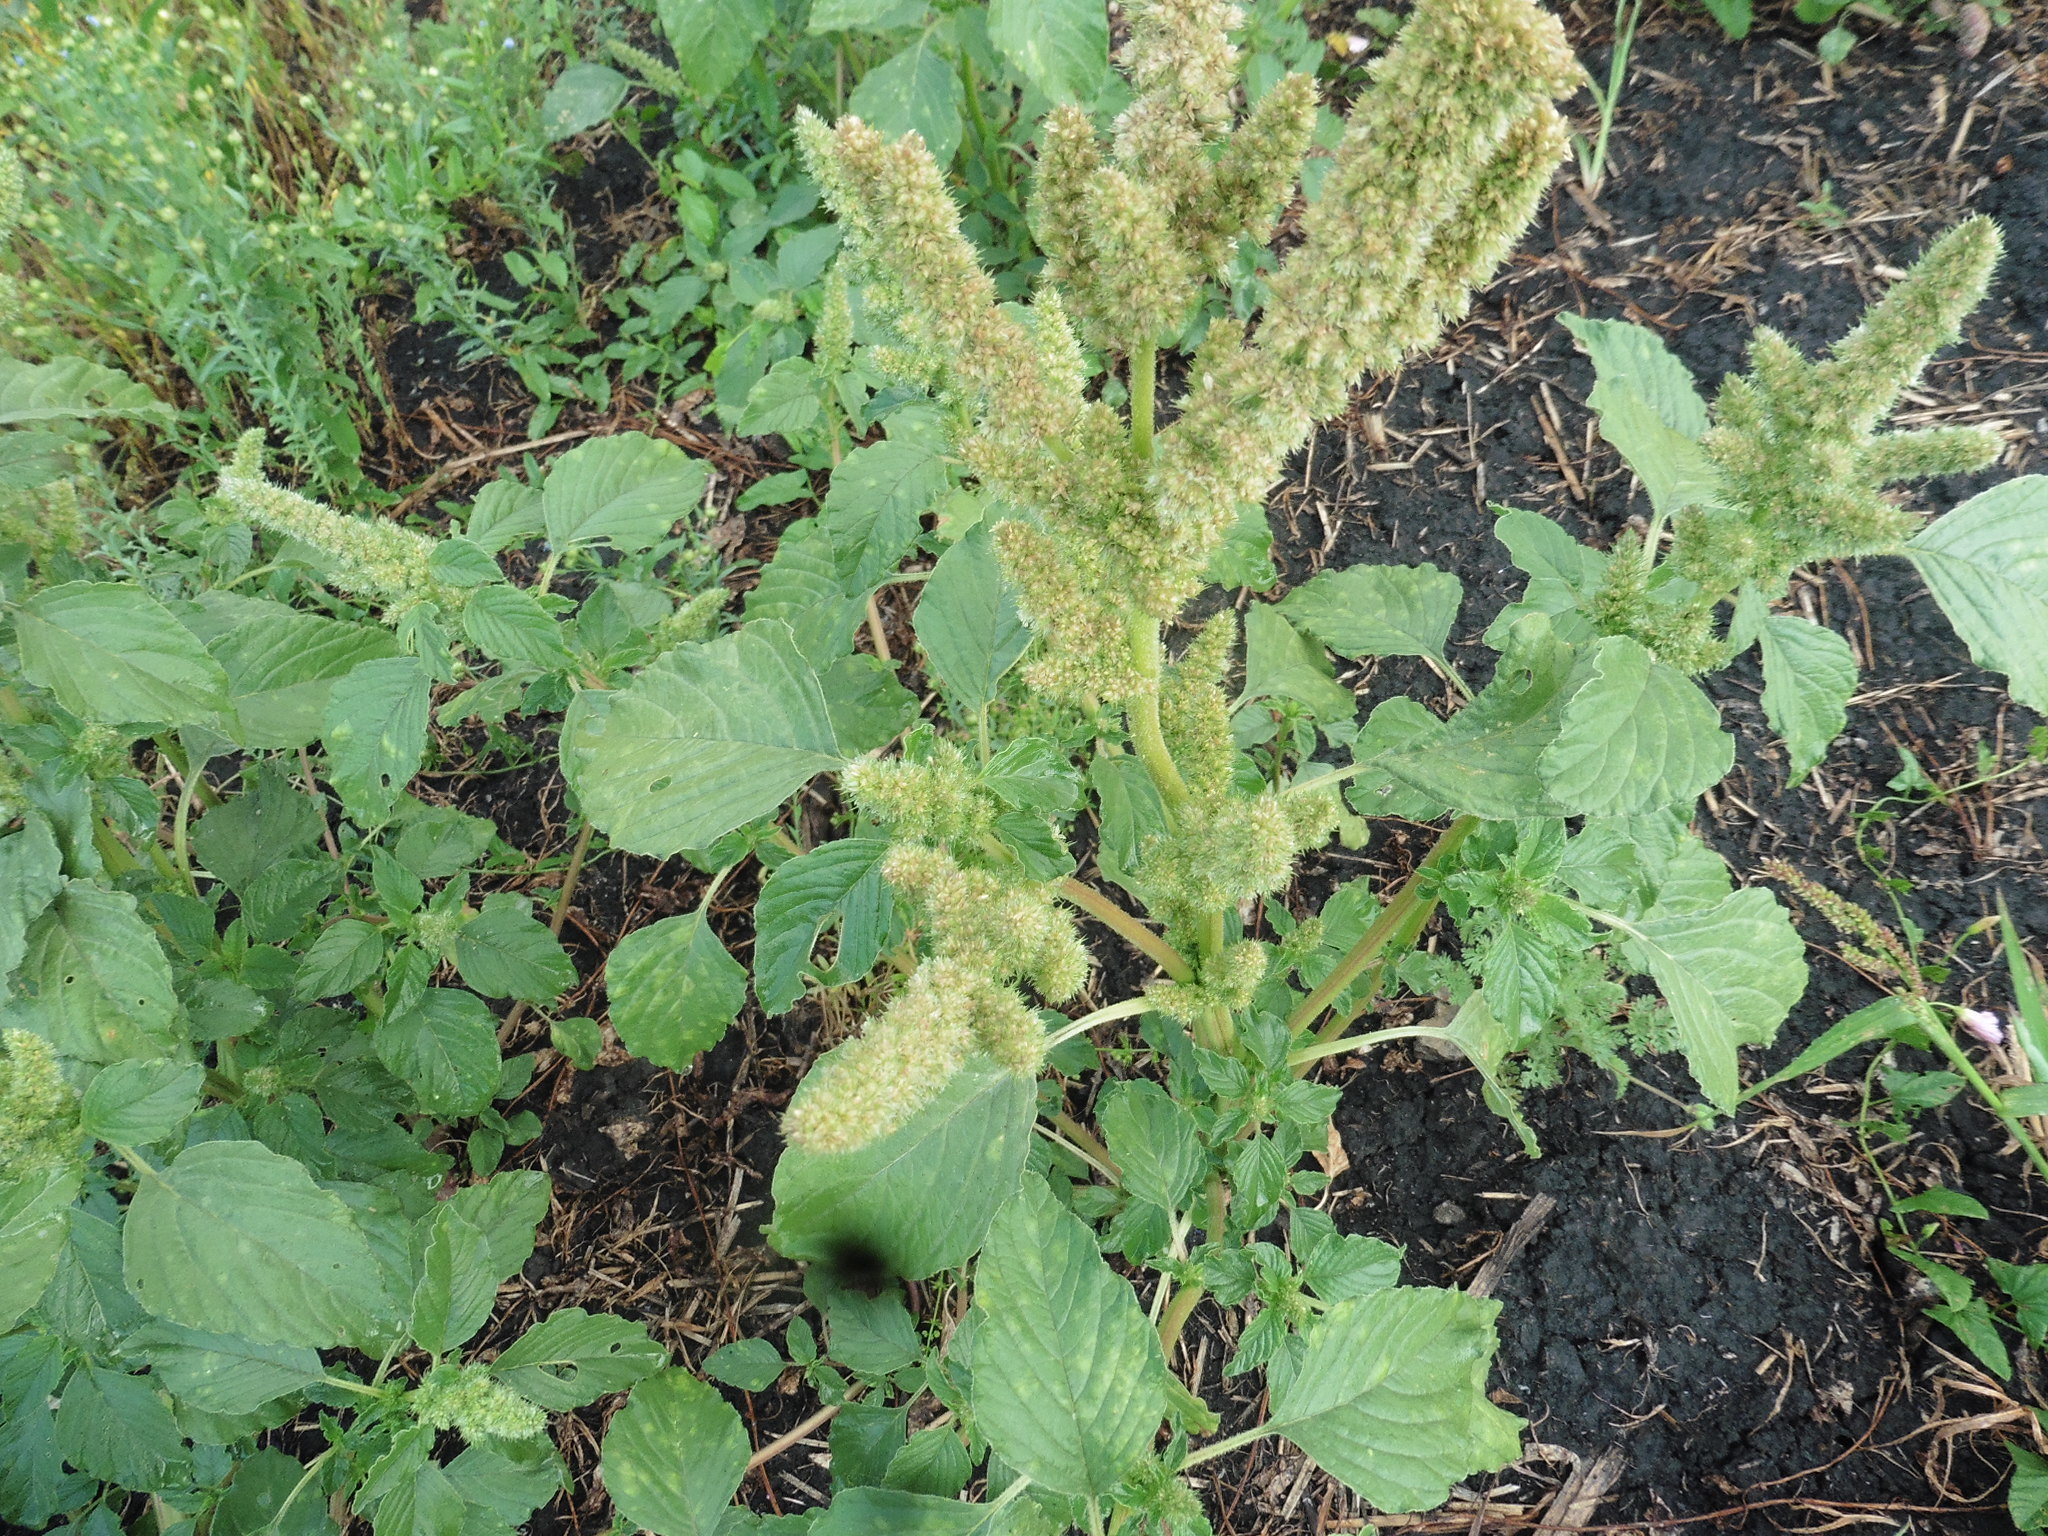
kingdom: Plantae
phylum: Tracheophyta
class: Magnoliopsida
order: Caryophyllales
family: Amaranthaceae
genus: Amaranthus
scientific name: Amaranthus retroflexus
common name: Redroot amaranth
